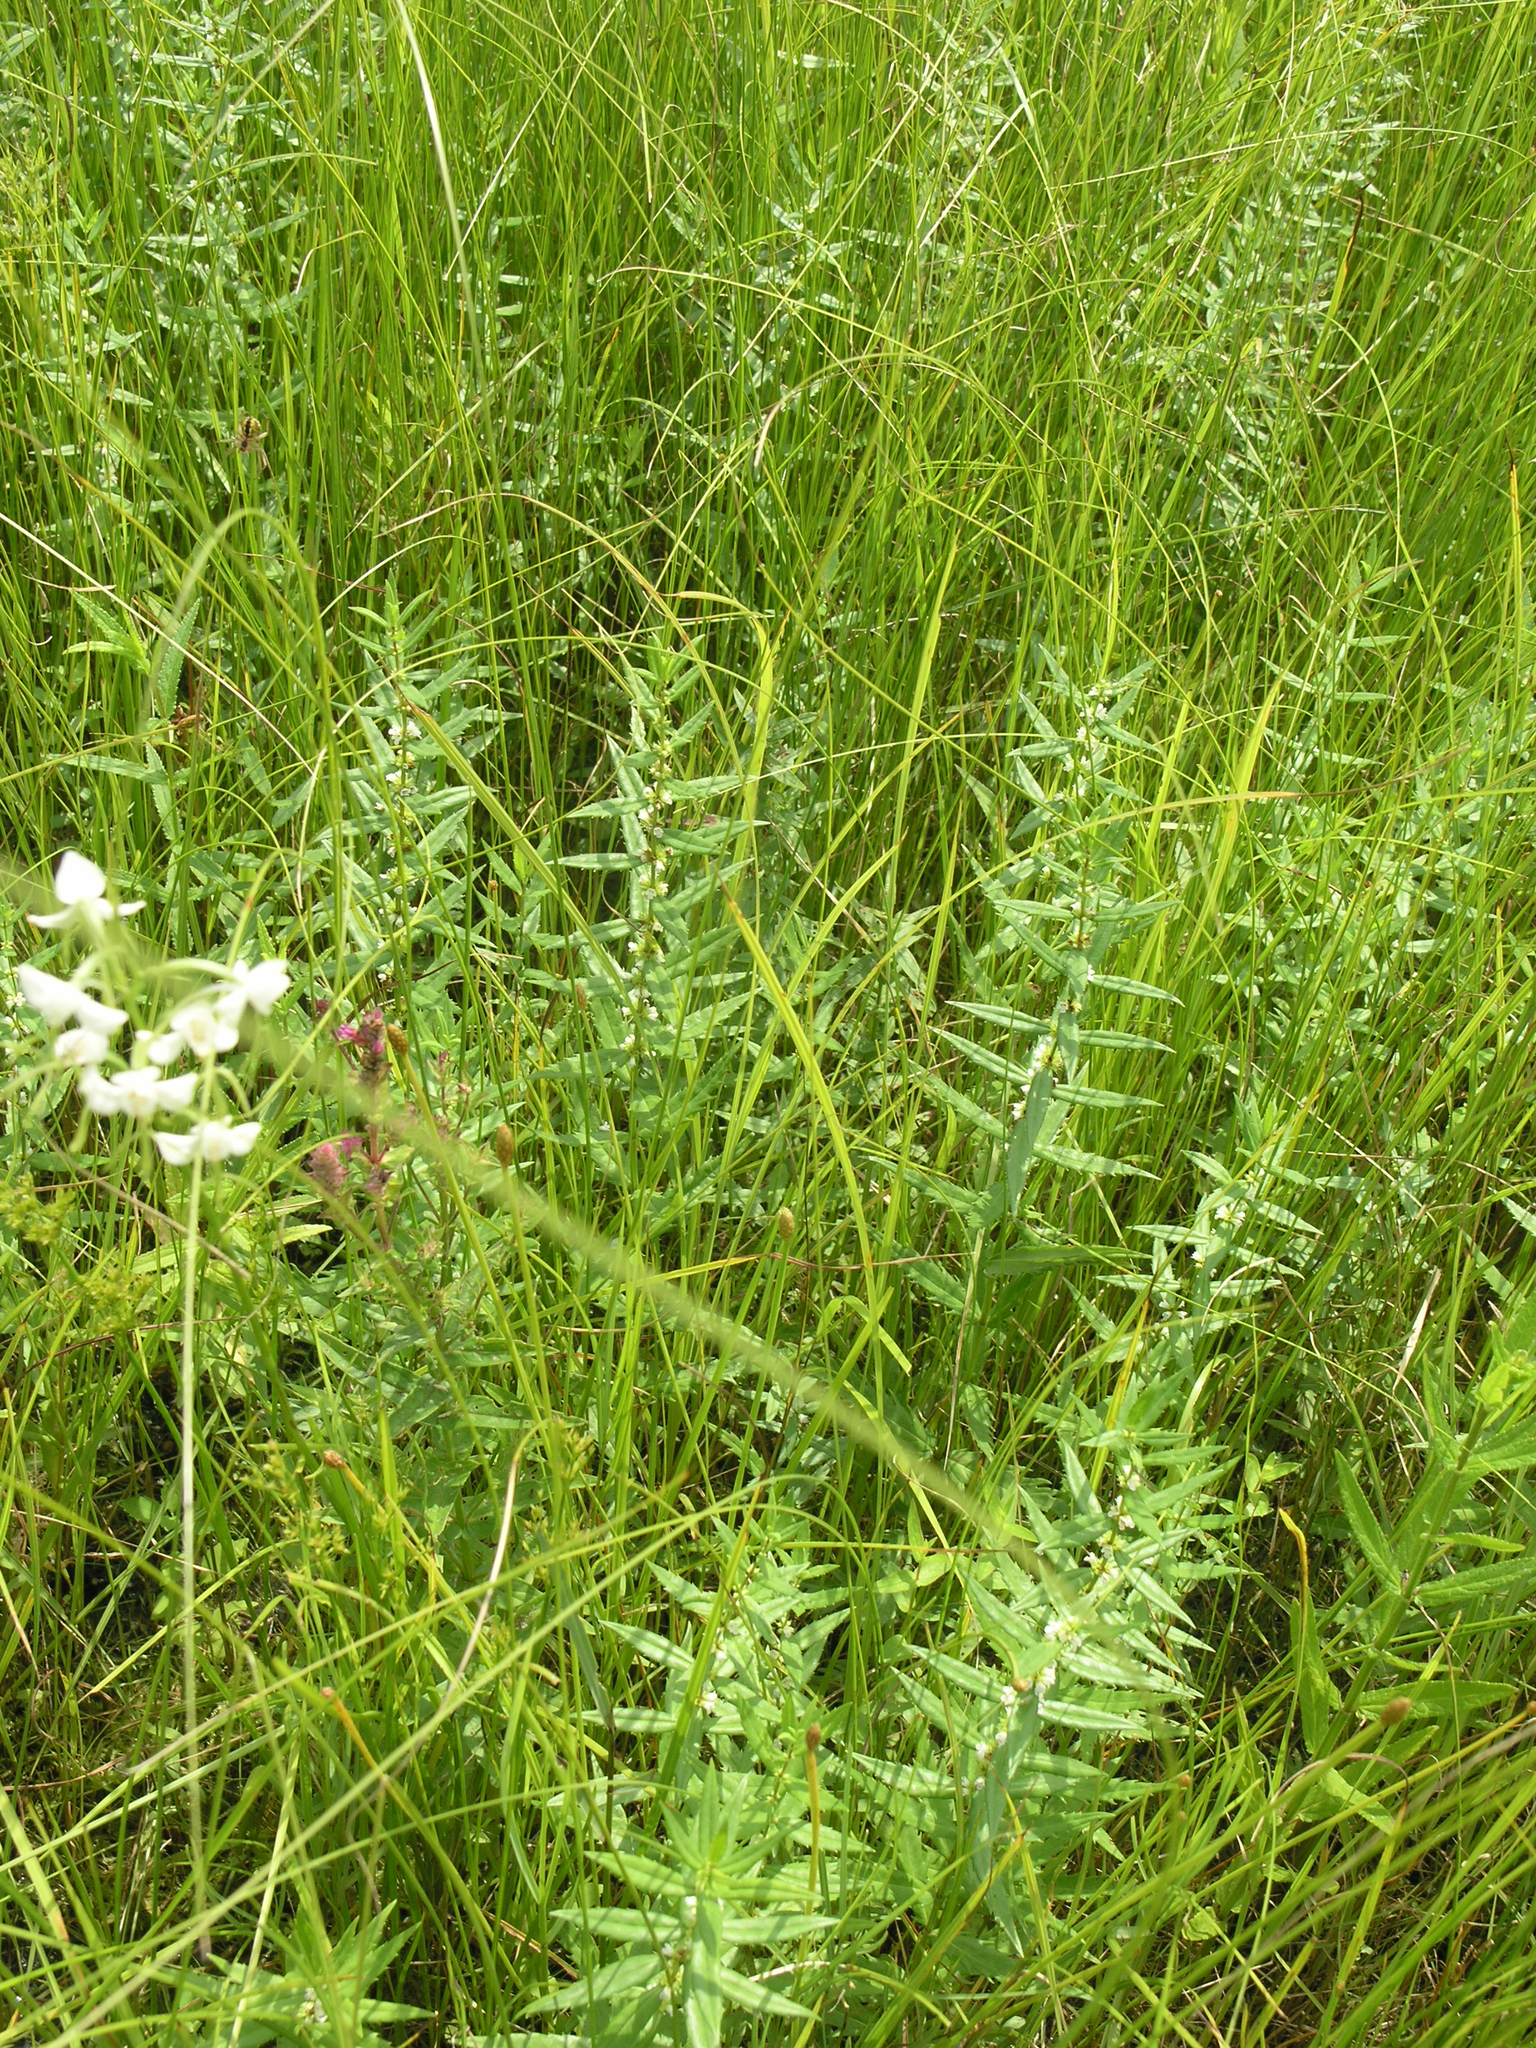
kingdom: Plantae
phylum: Tracheophyta
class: Magnoliopsida
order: Lamiales
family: Lamiaceae
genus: Lycopus
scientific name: Lycopus lucidus
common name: Shiny bugleweed
